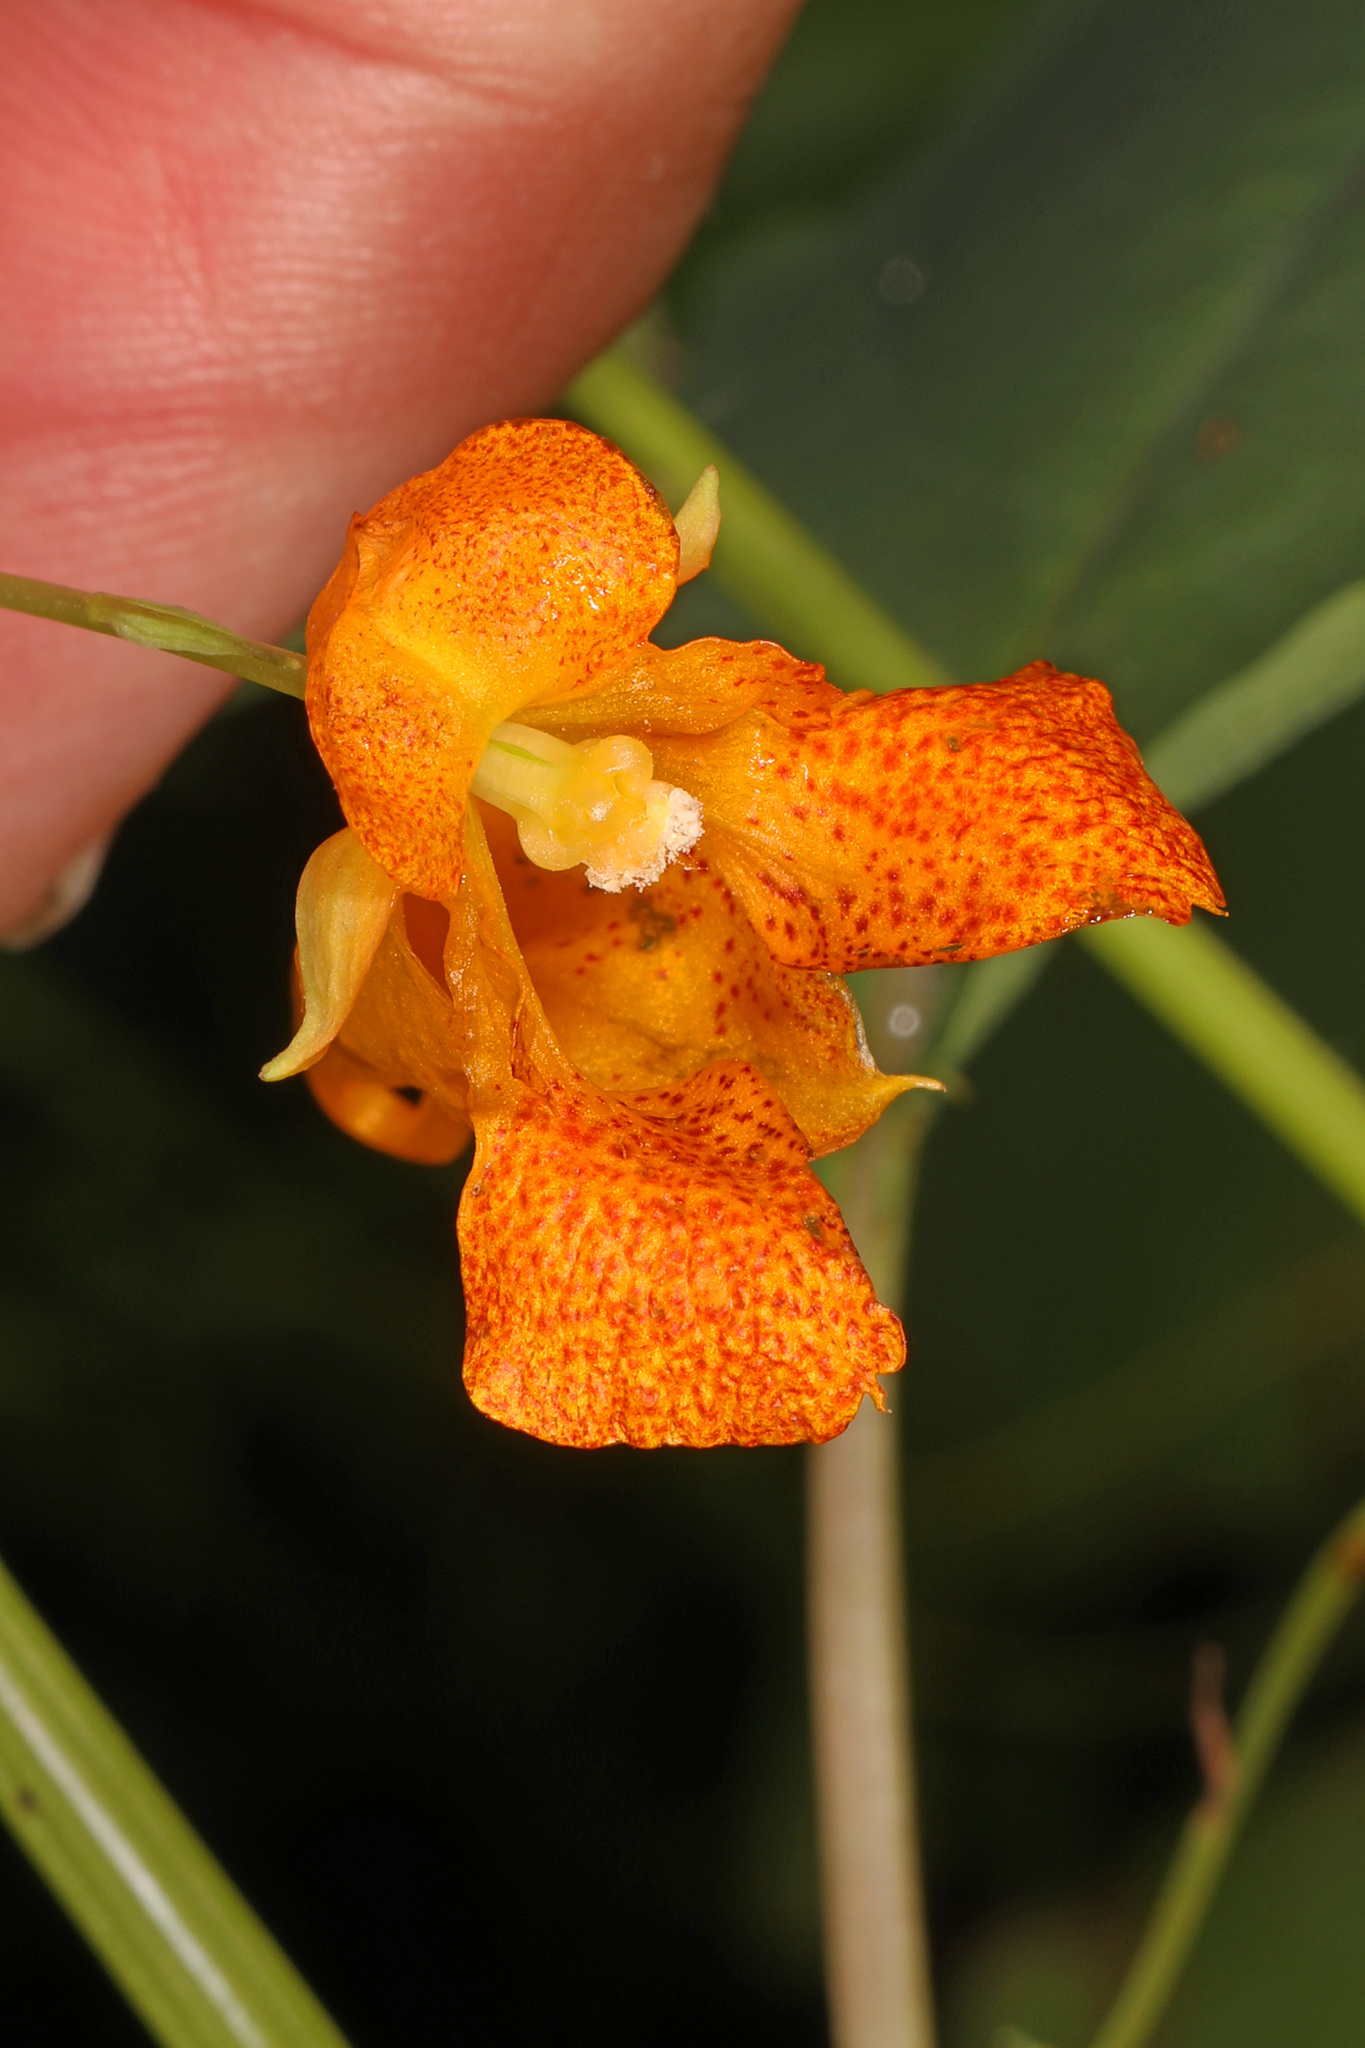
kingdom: Plantae
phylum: Tracheophyta
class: Magnoliopsida
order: Ericales
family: Balsaminaceae
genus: Impatiens
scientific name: Impatiens capensis
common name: Orange balsam
